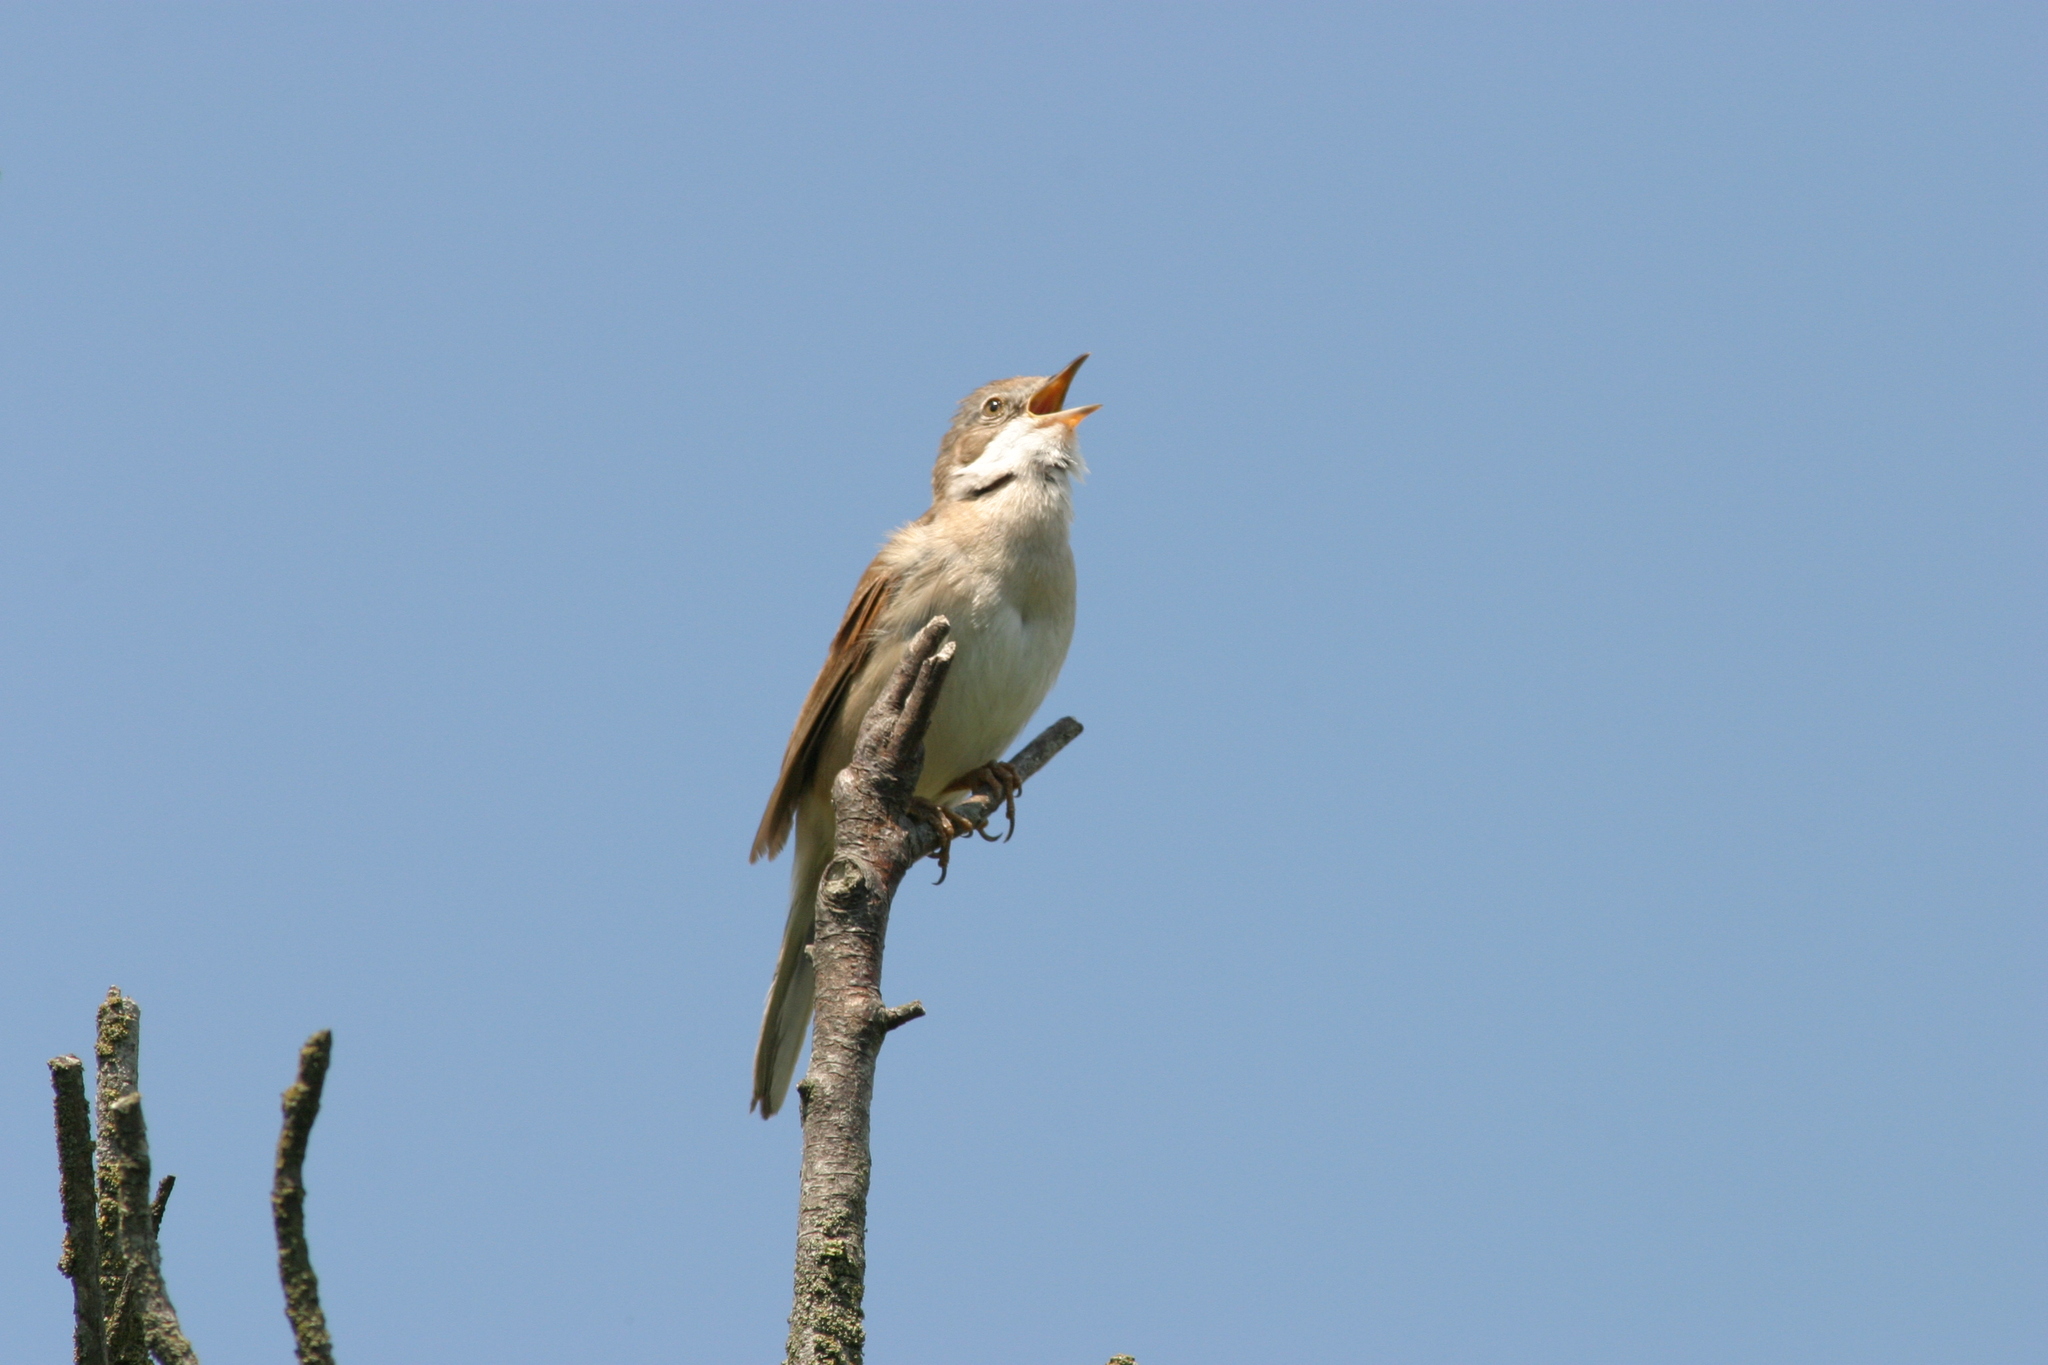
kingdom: Animalia
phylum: Chordata
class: Aves
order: Passeriformes
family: Sylviidae
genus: Sylvia
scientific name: Sylvia communis
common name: Common whitethroat
